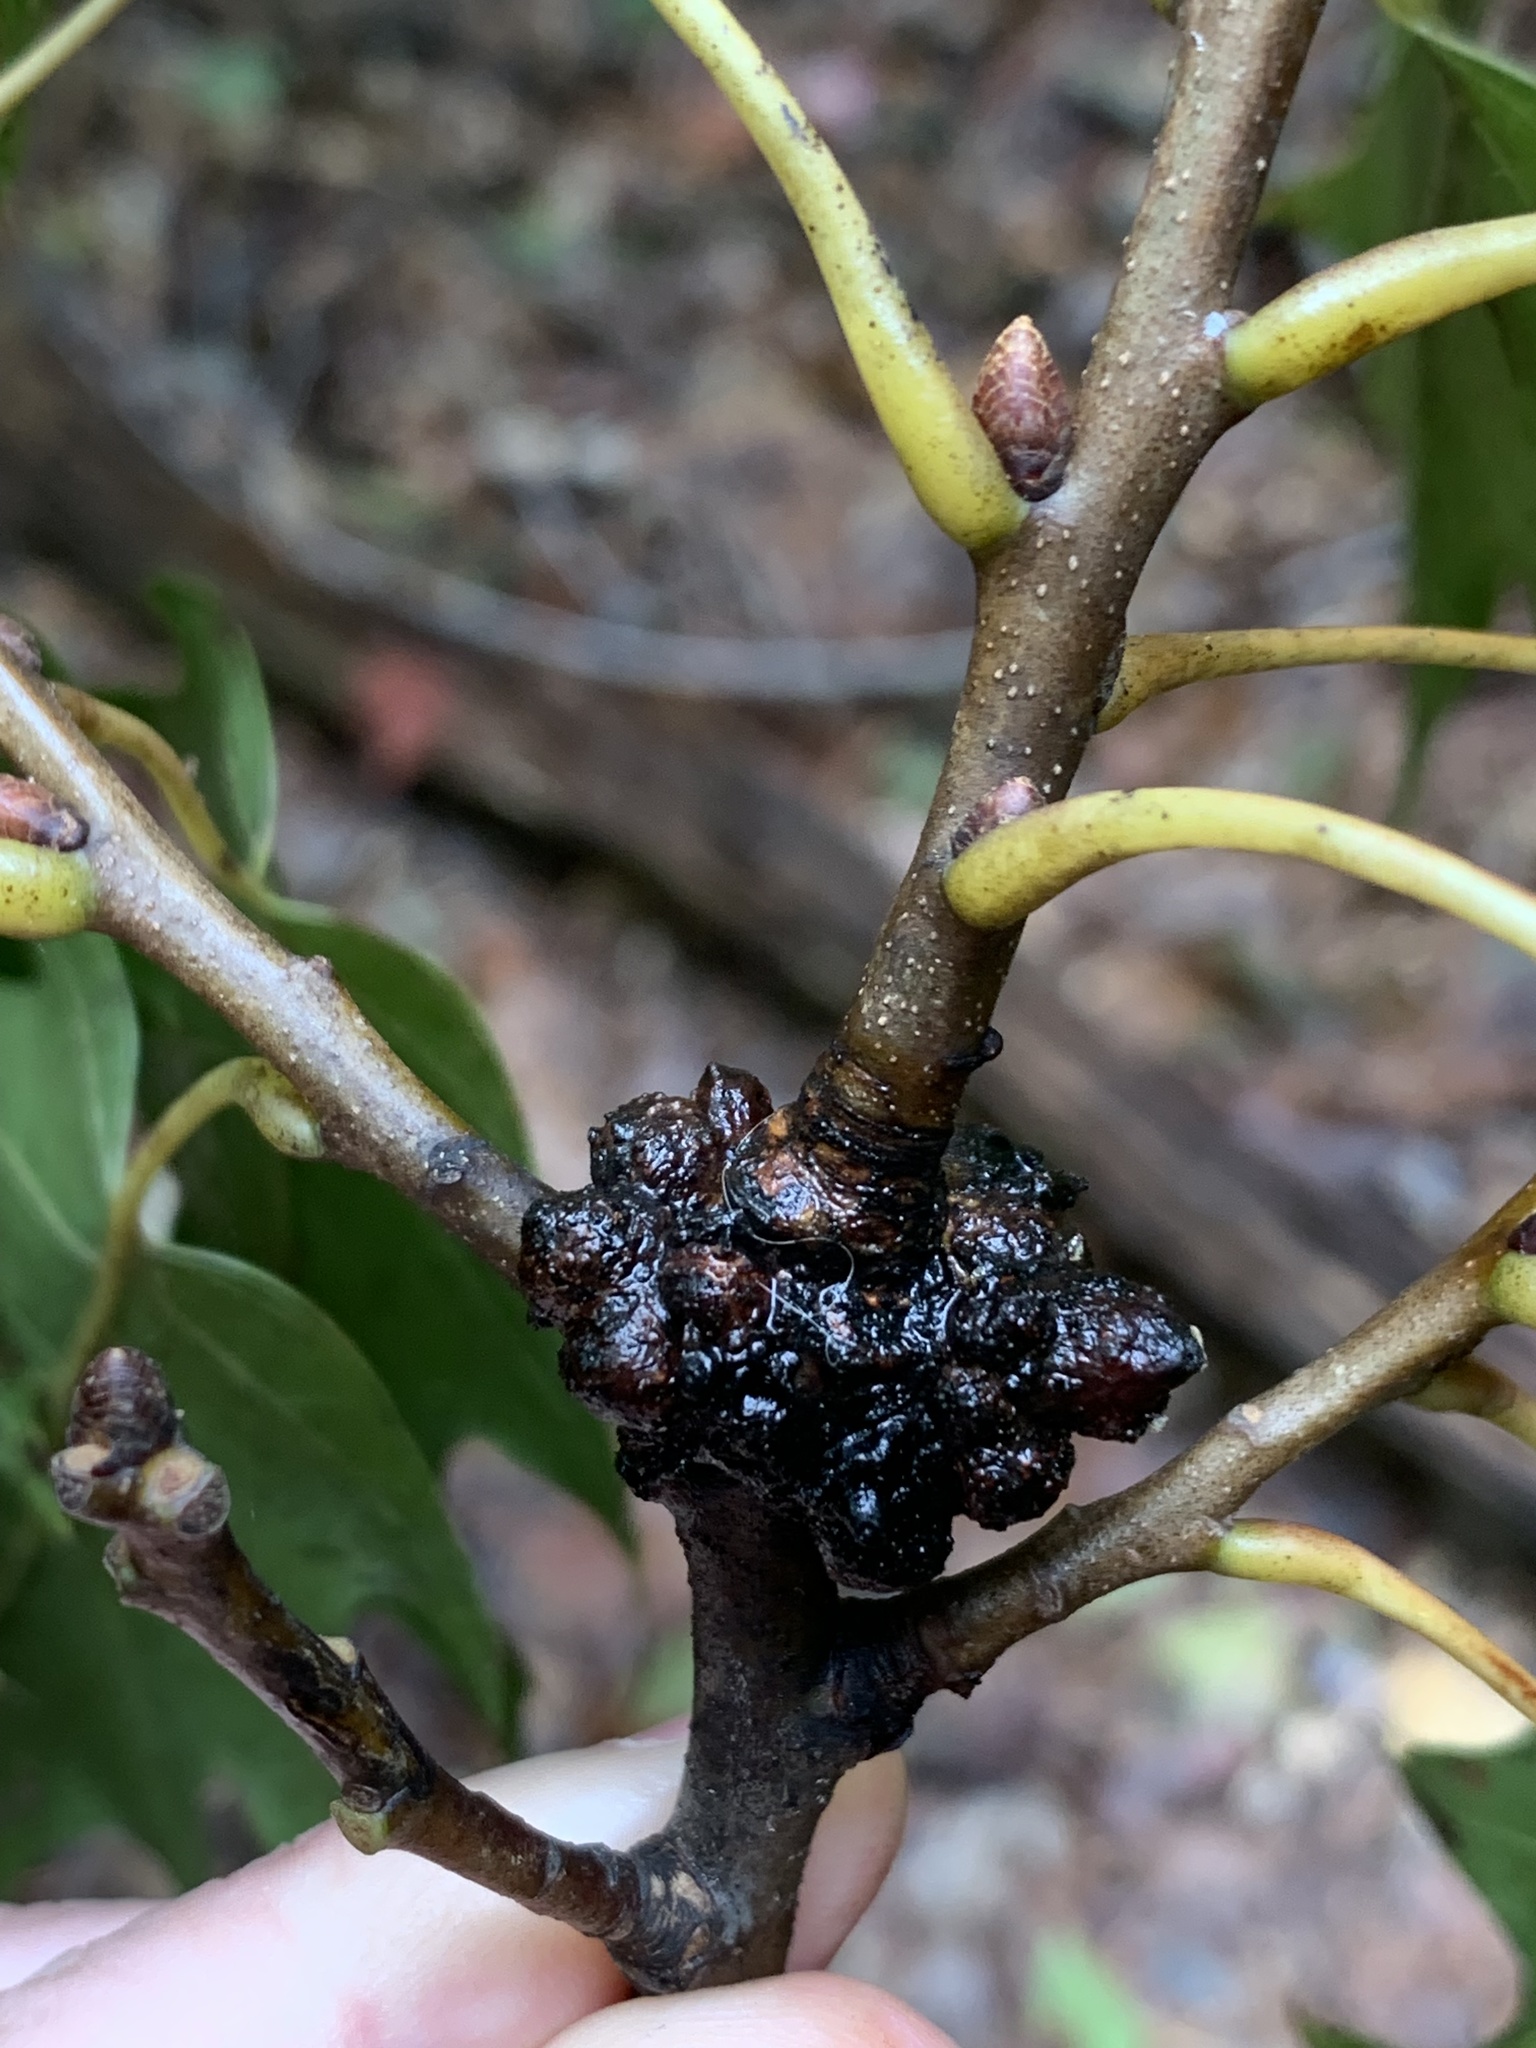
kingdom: Animalia
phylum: Arthropoda
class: Insecta
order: Hymenoptera
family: Cynipidae
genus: Synergus
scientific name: Synergus lignicola
